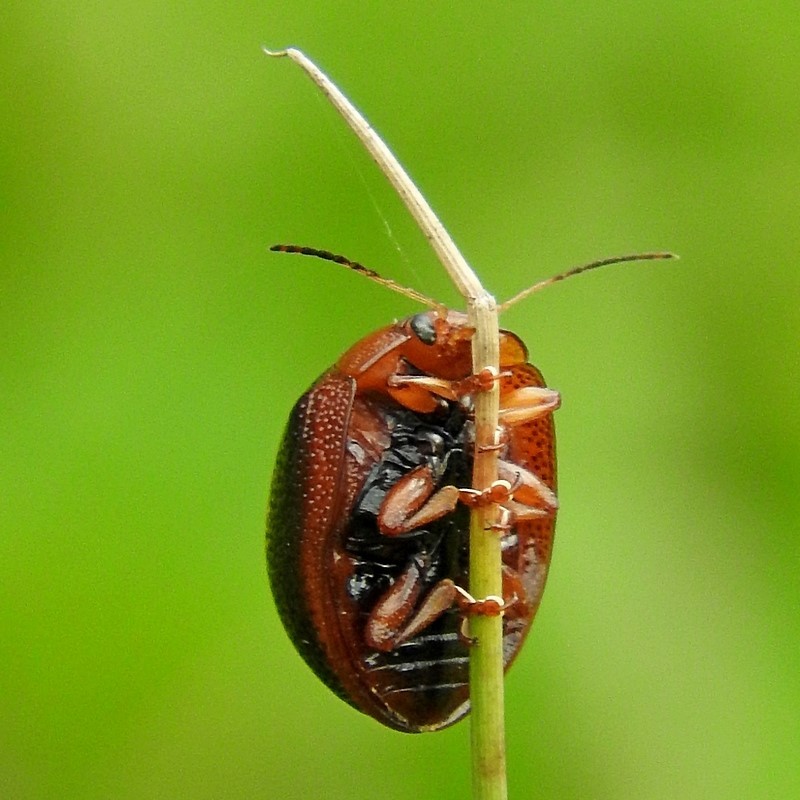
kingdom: Animalia
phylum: Arthropoda
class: Insecta
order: Coleoptera
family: Chrysomelidae
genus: Dicranosterna
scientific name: Dicranosterna
